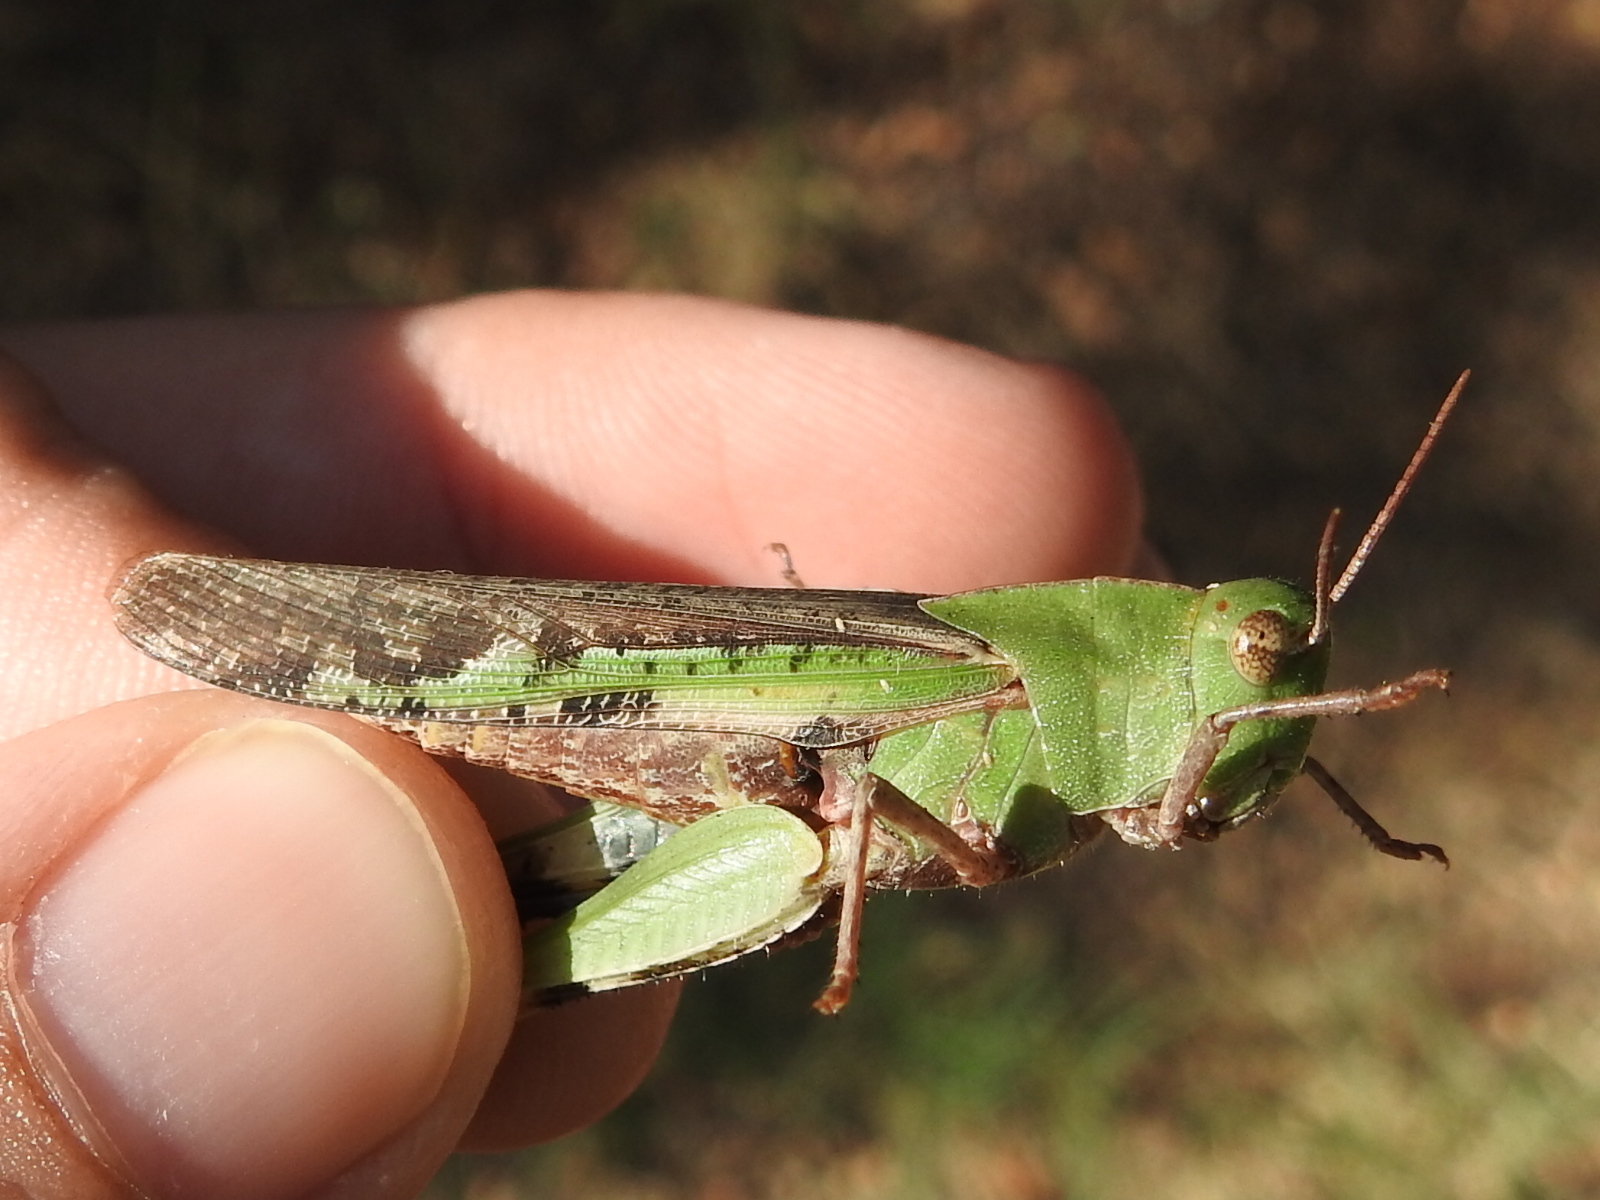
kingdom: Animalia
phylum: Arthropoda
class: Insecta
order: Orthoptera
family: Acrididae
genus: Chortophaga
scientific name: Chortophaga viridifasciata
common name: Green-striped grasshopper
